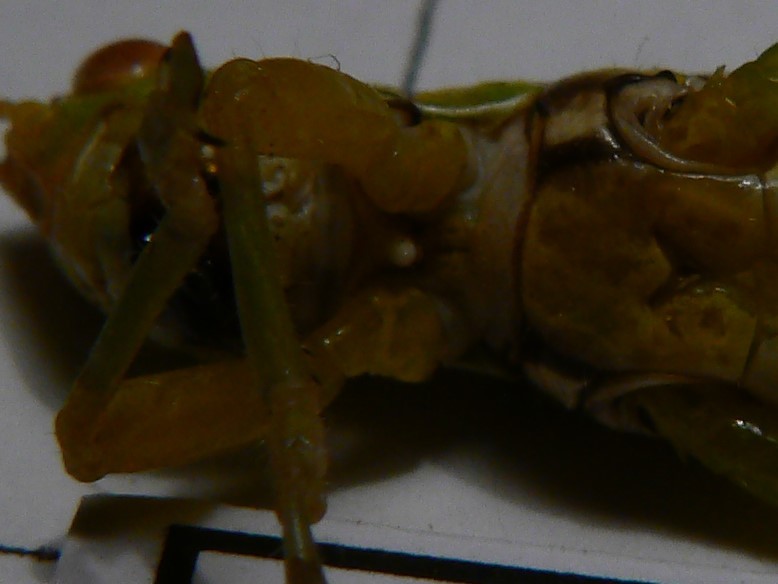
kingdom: Animalia
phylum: Arthropoda
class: Insecta
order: Orthoptera
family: Acrididae
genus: Bermius
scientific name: Bermius
